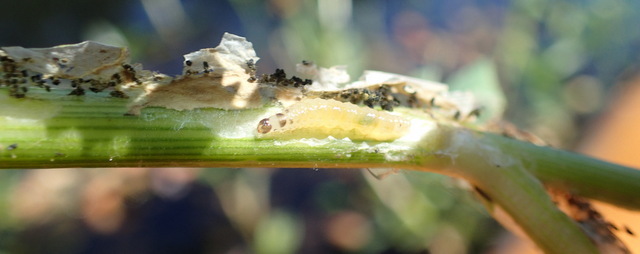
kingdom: Animalia
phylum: Arthropoda
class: Insecta
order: Coleoptera
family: Chrysomelidae
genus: Agasicles
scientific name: Agasicles hygrophila
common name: Alligatorweed flea beetle
